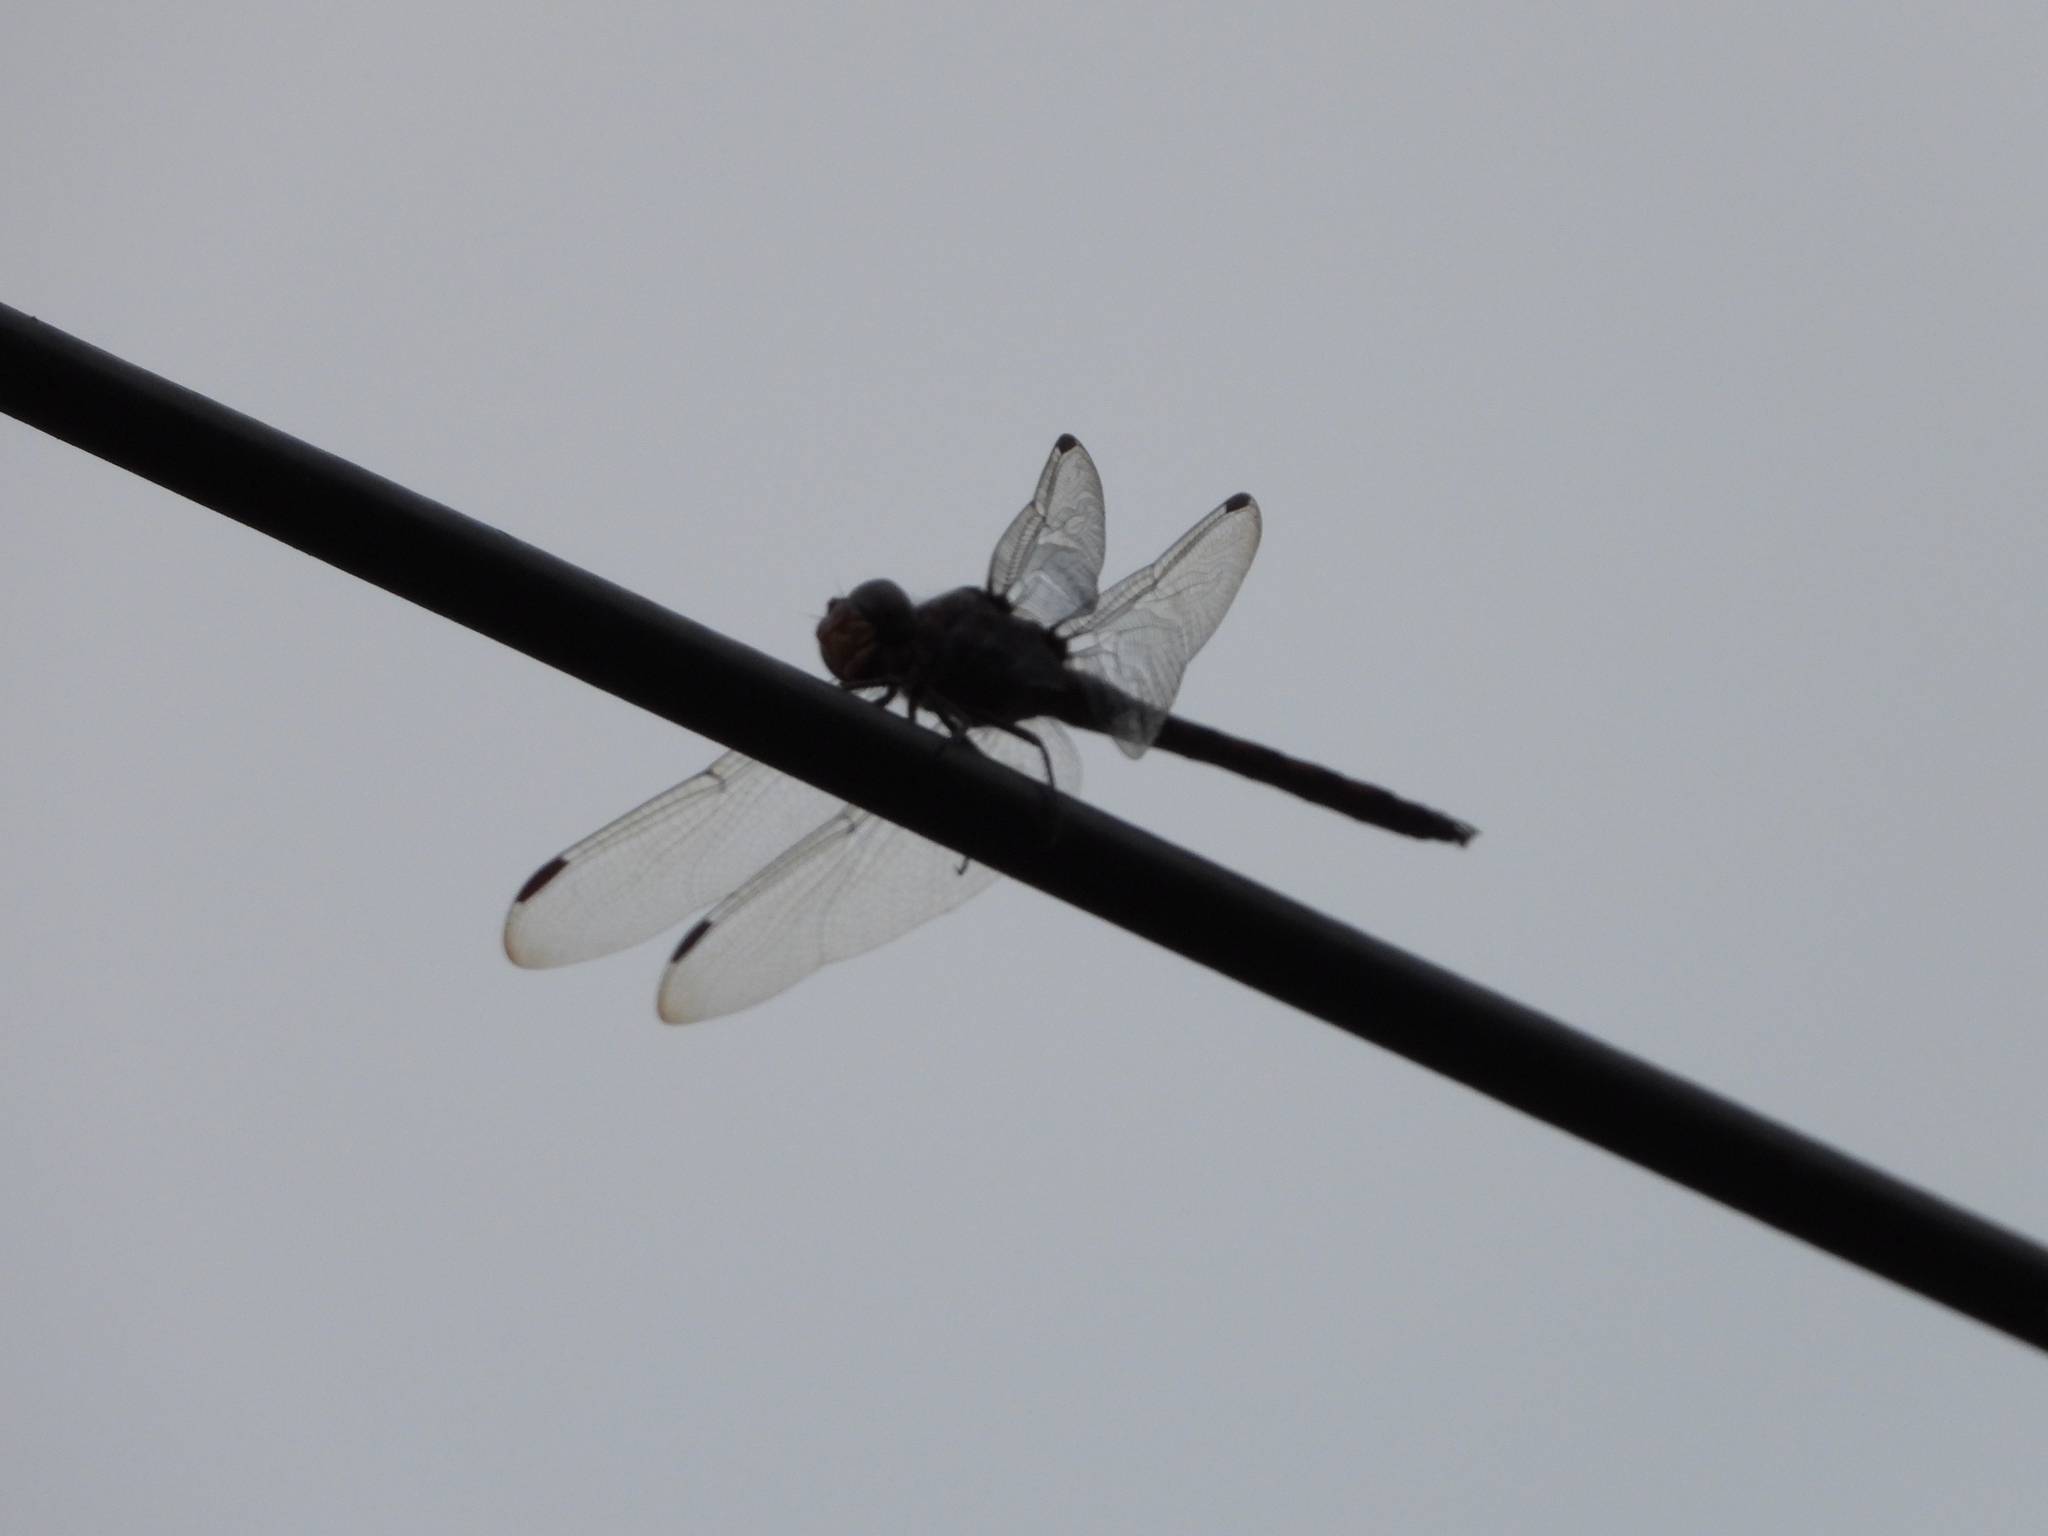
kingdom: Animalia
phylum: Arthropoda
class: Insecta
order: Odonata
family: Libellulidae
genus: Potamarcha
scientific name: Potamarcha congener
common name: Blue chaser
